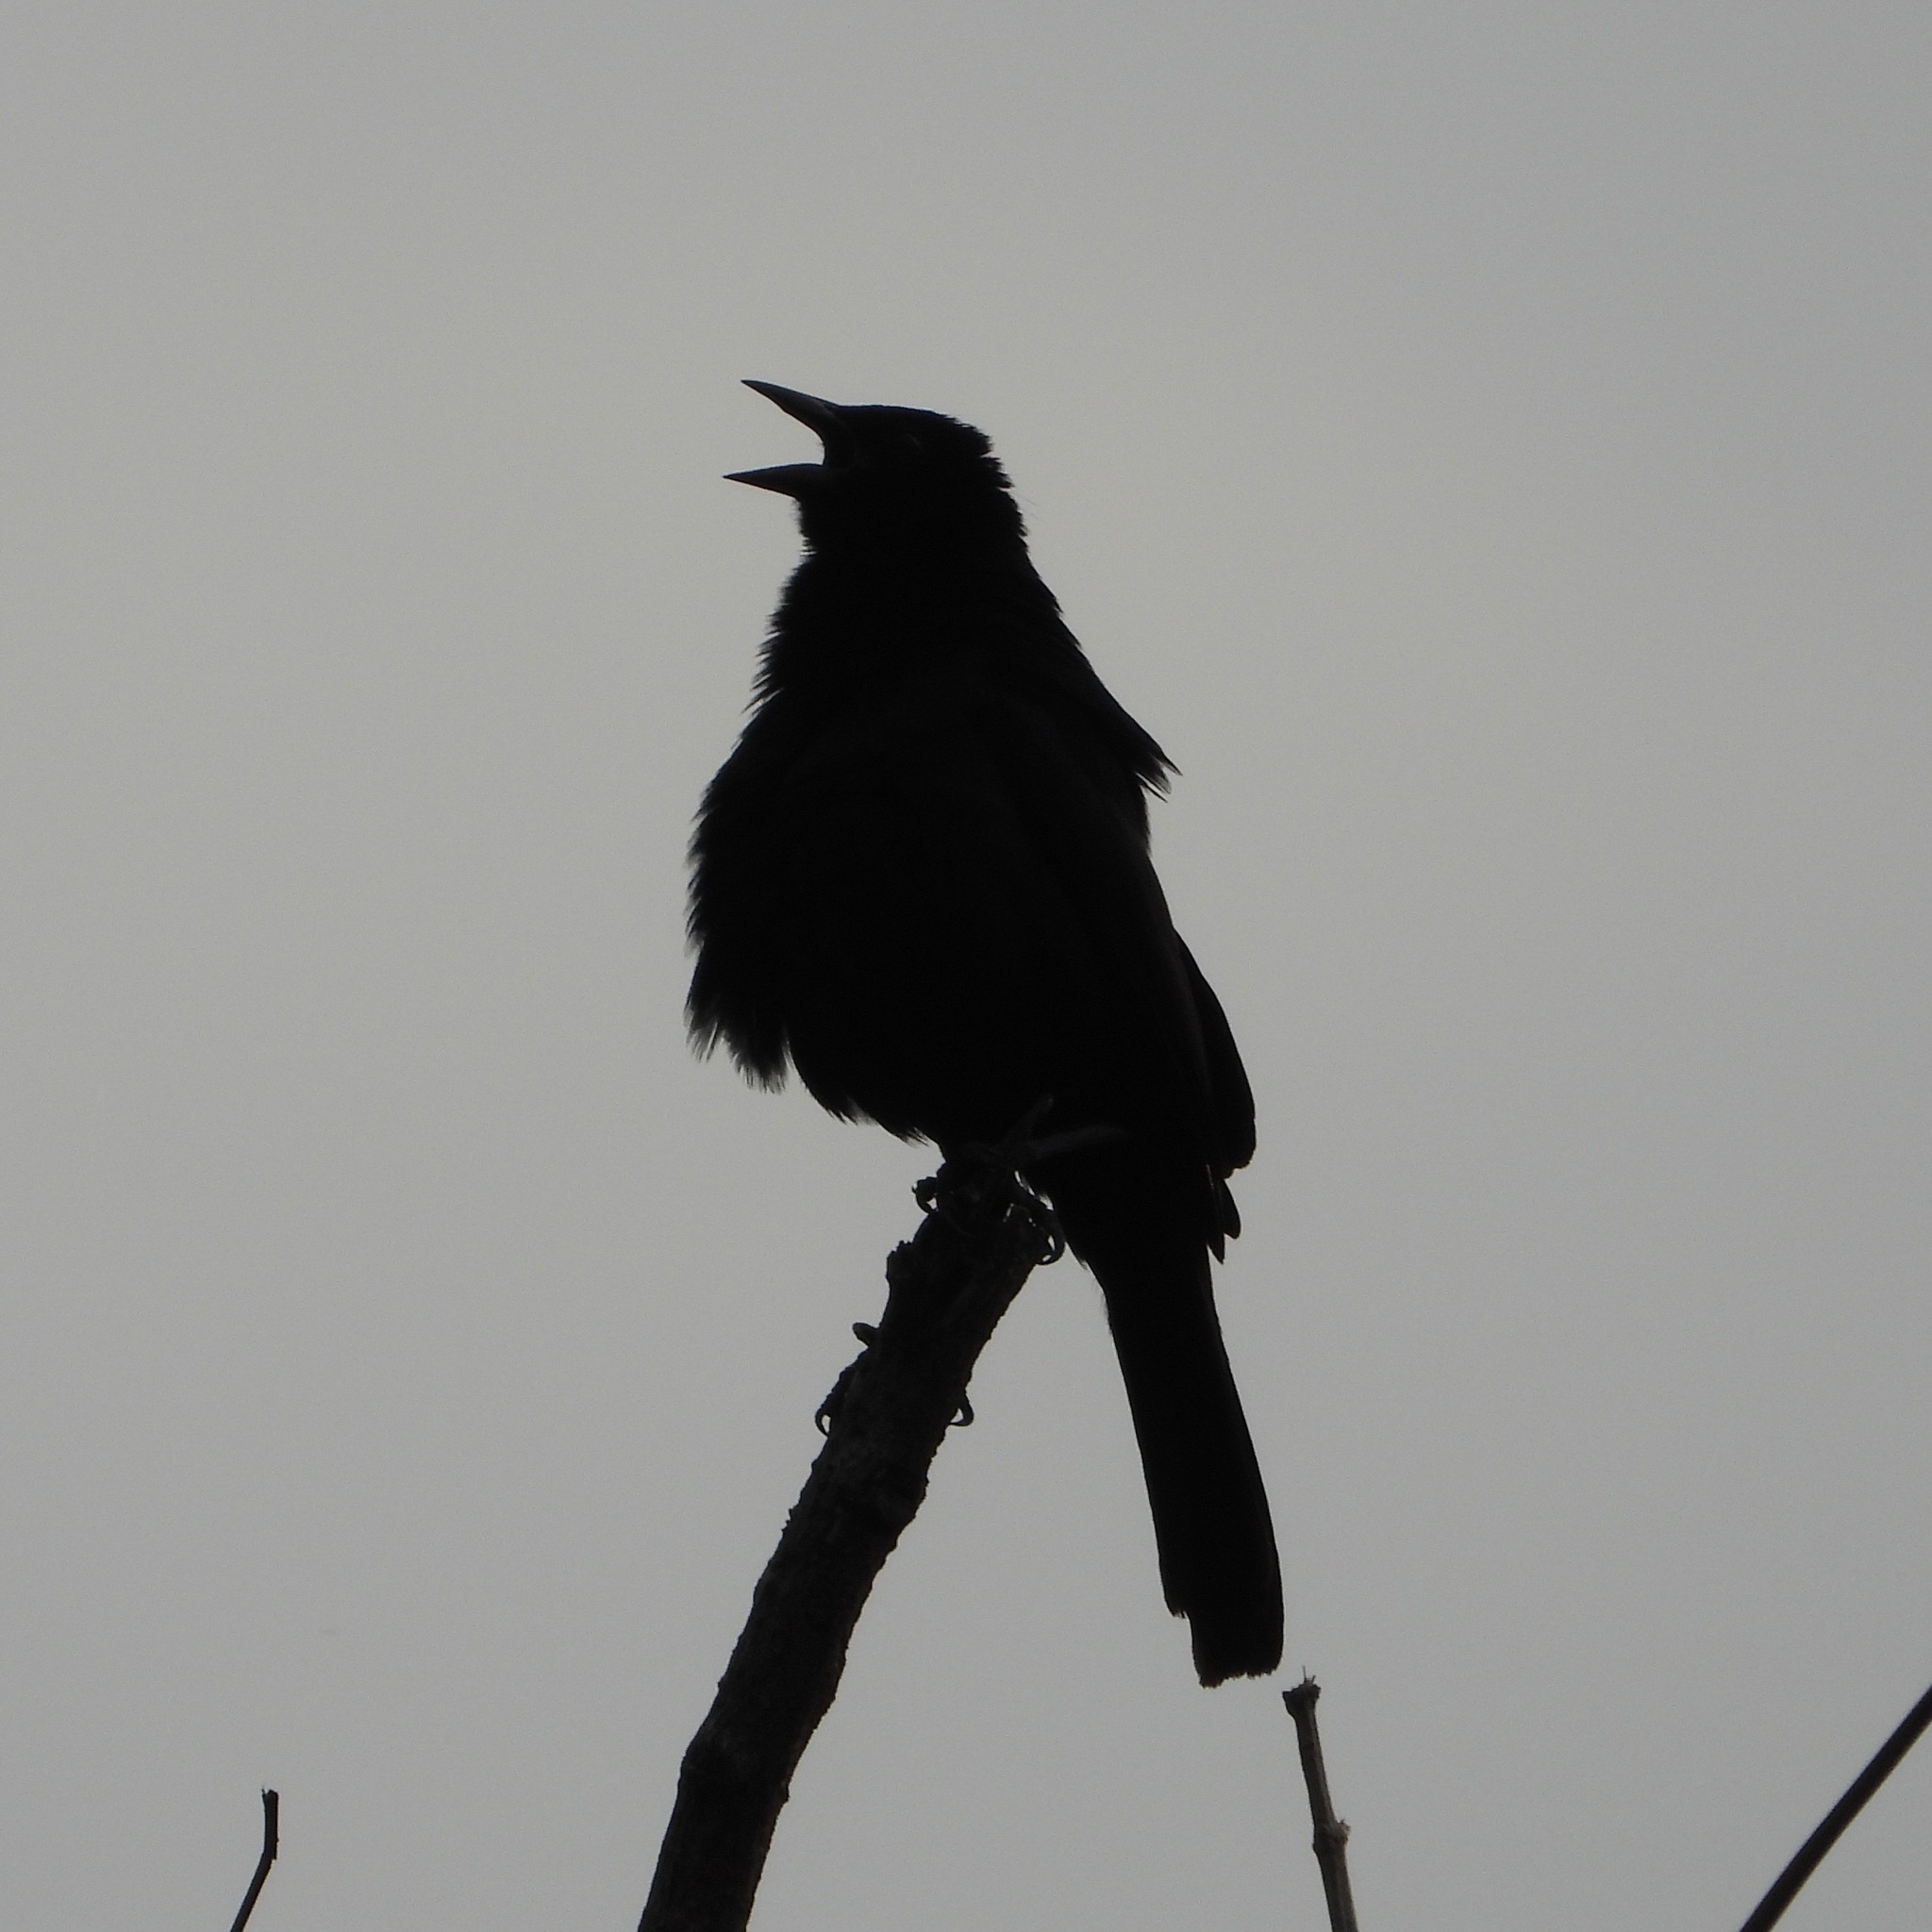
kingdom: Animalia
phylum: Chordata
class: Aves
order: Passeriformes
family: Icteridae
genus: Dives
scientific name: Dives dives
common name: Melodious blackbird
